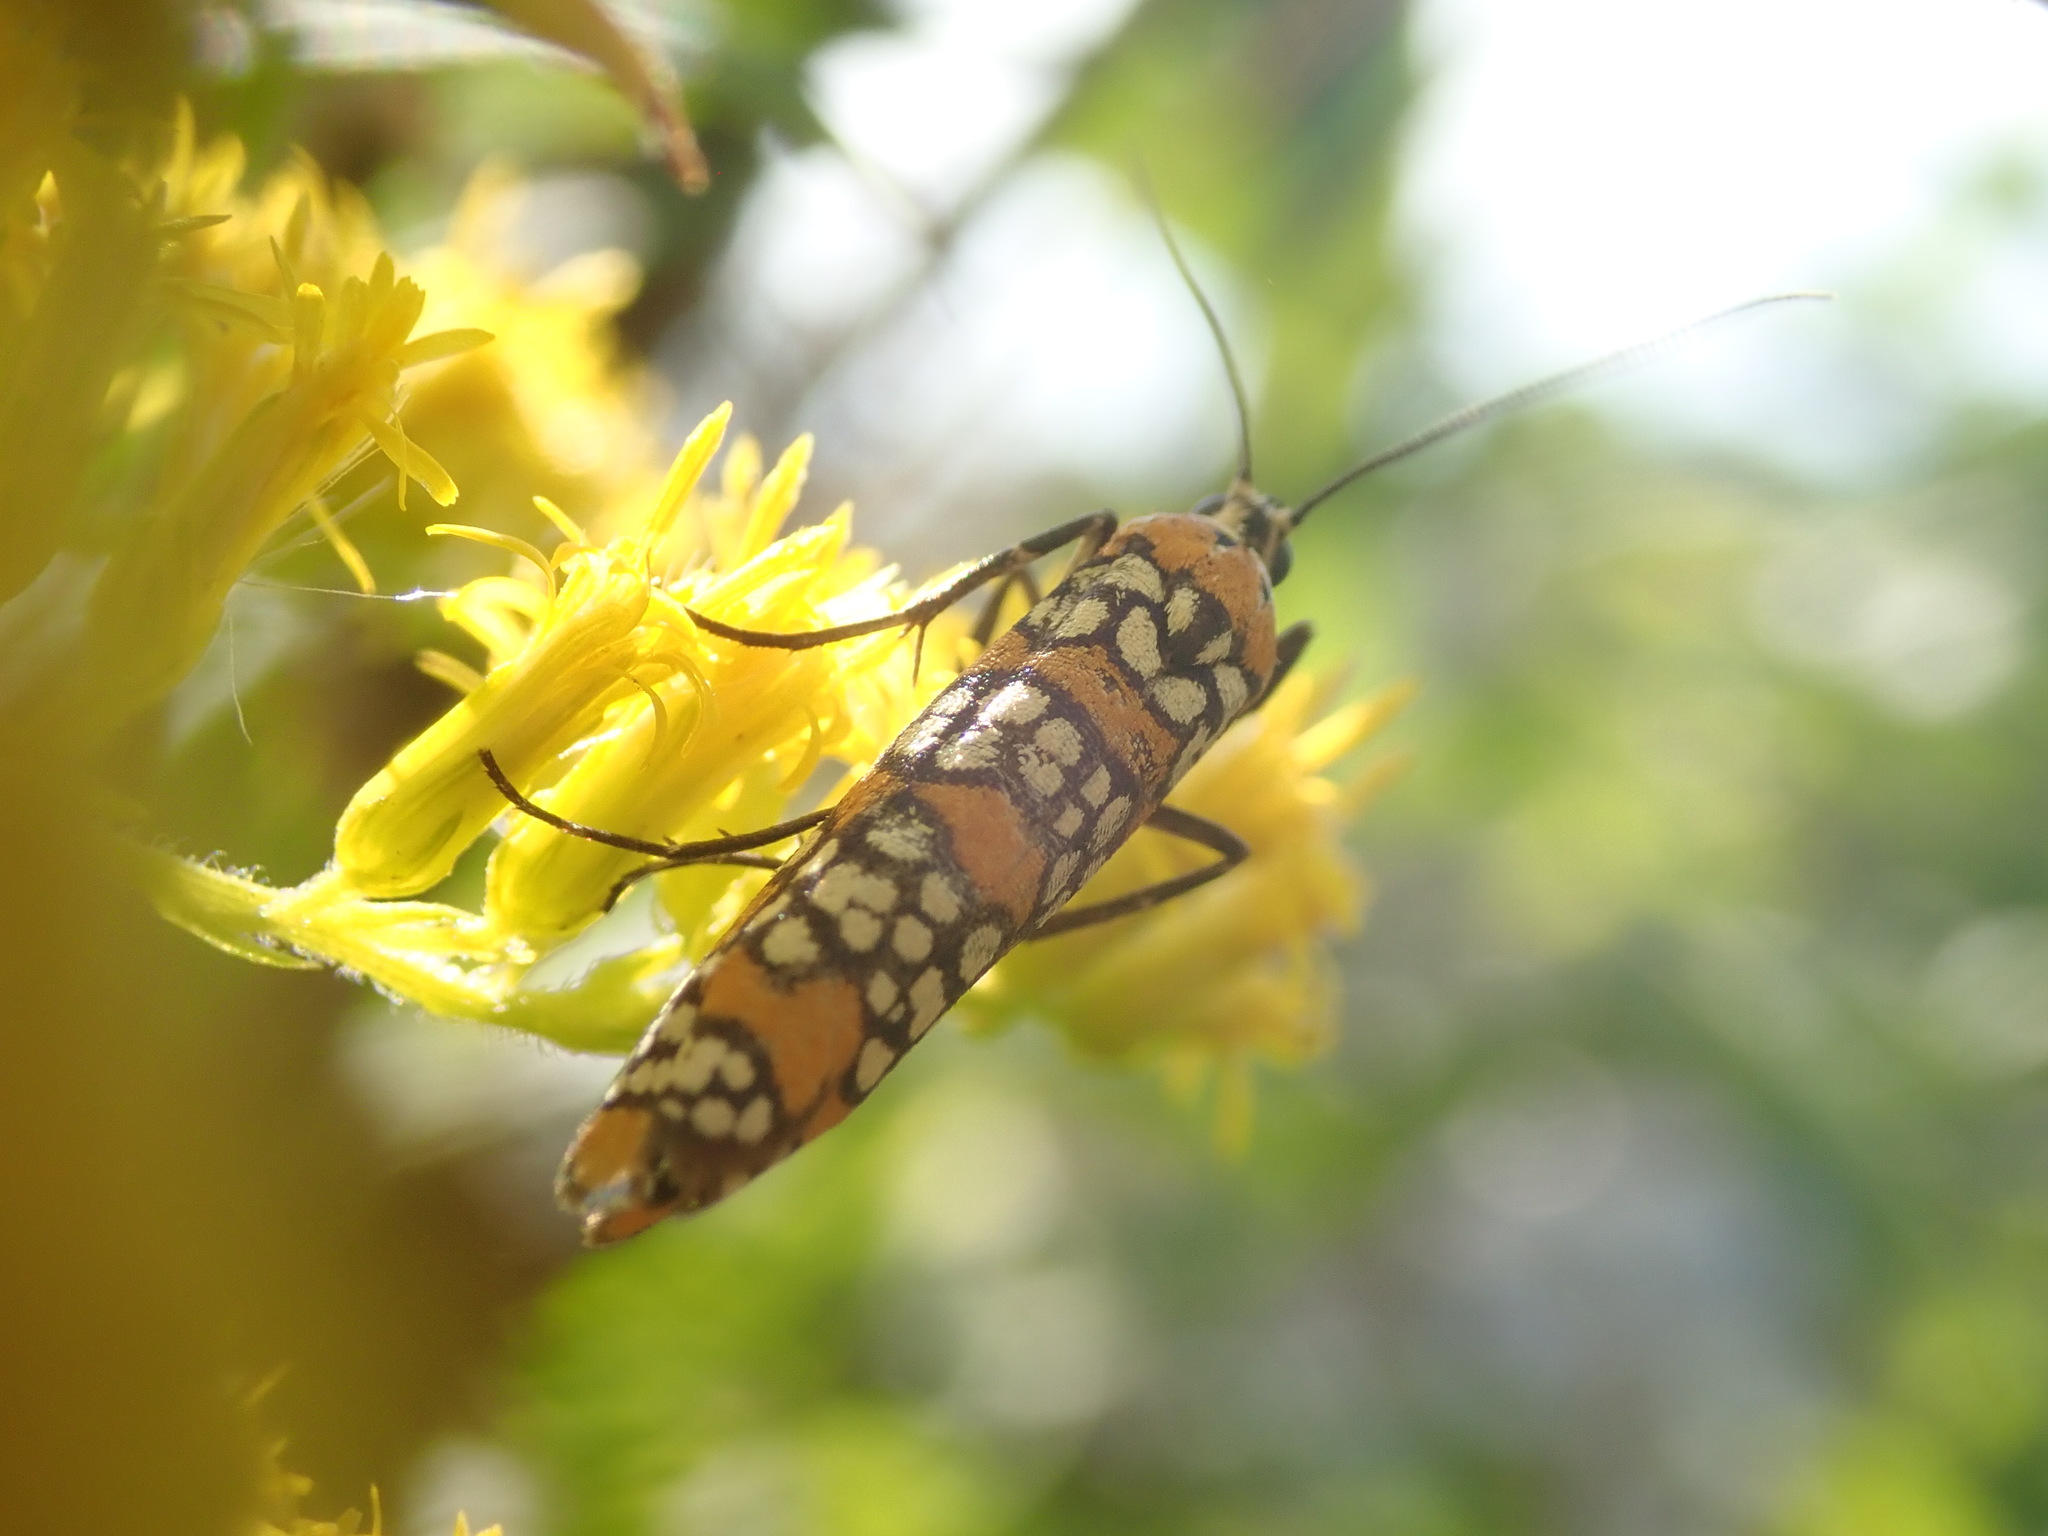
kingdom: Animalia
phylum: Arthropoda
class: Insecta
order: Lepidoptera
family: Attevidae
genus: Atteva
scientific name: Atteva punctella
